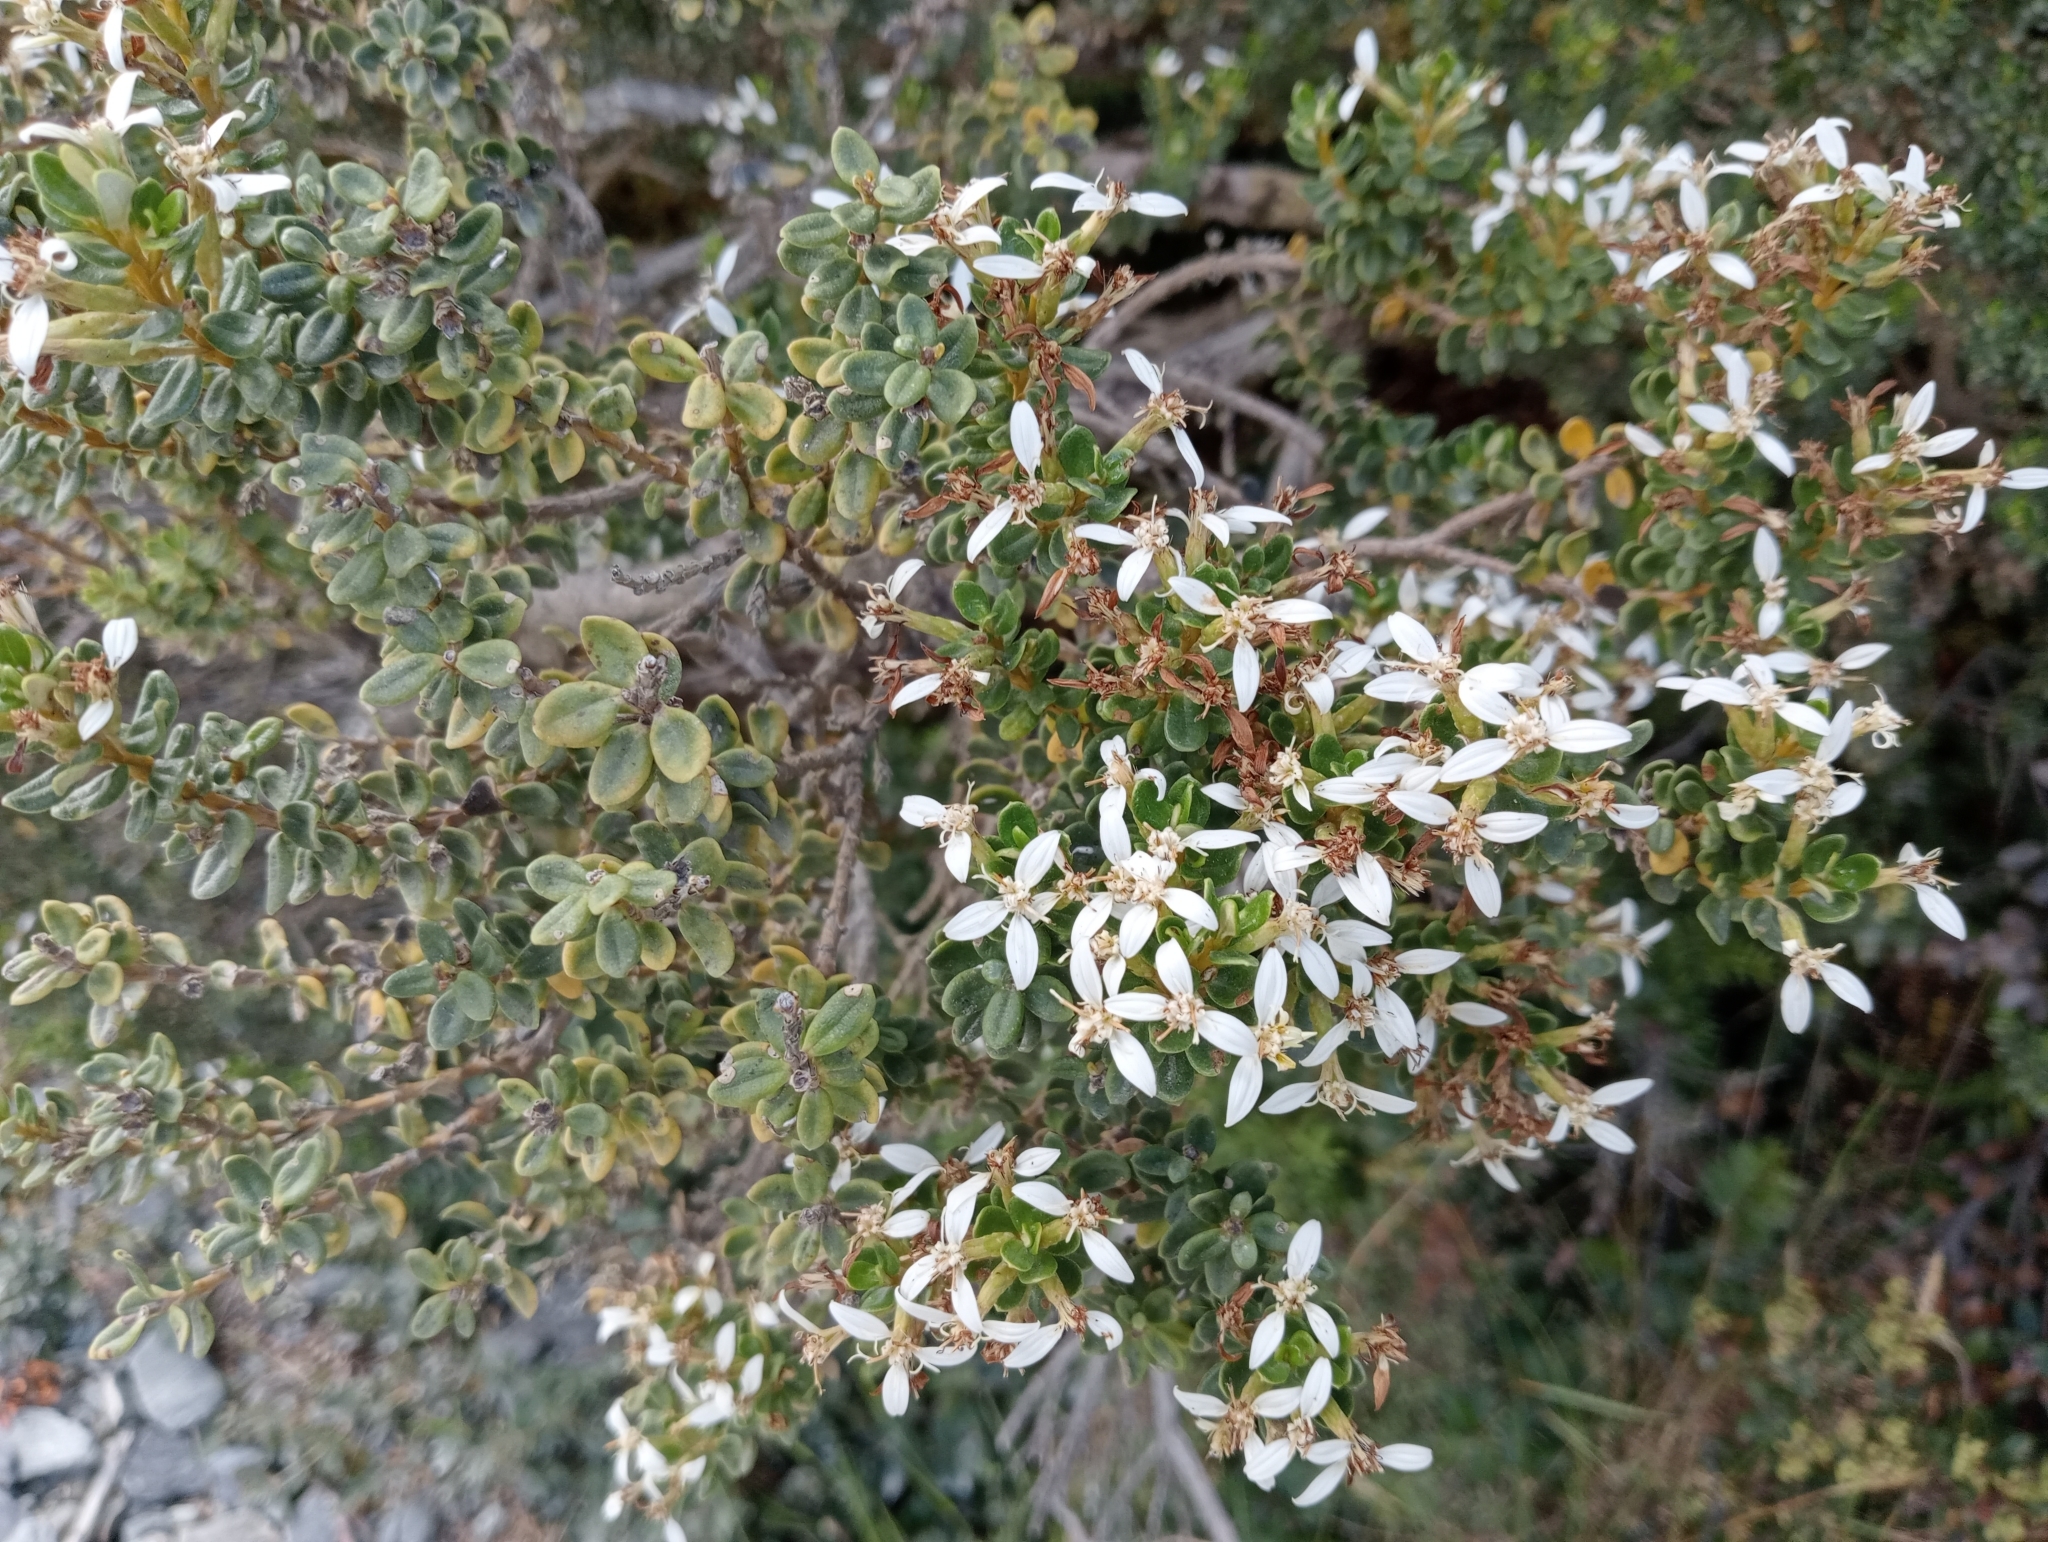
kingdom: Plantae
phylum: Tracheophyta
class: Magnoliopsida
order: Asterales
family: Asteraceae
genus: Olearia
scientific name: Olearia nummularifolia
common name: Sticky daisybush
